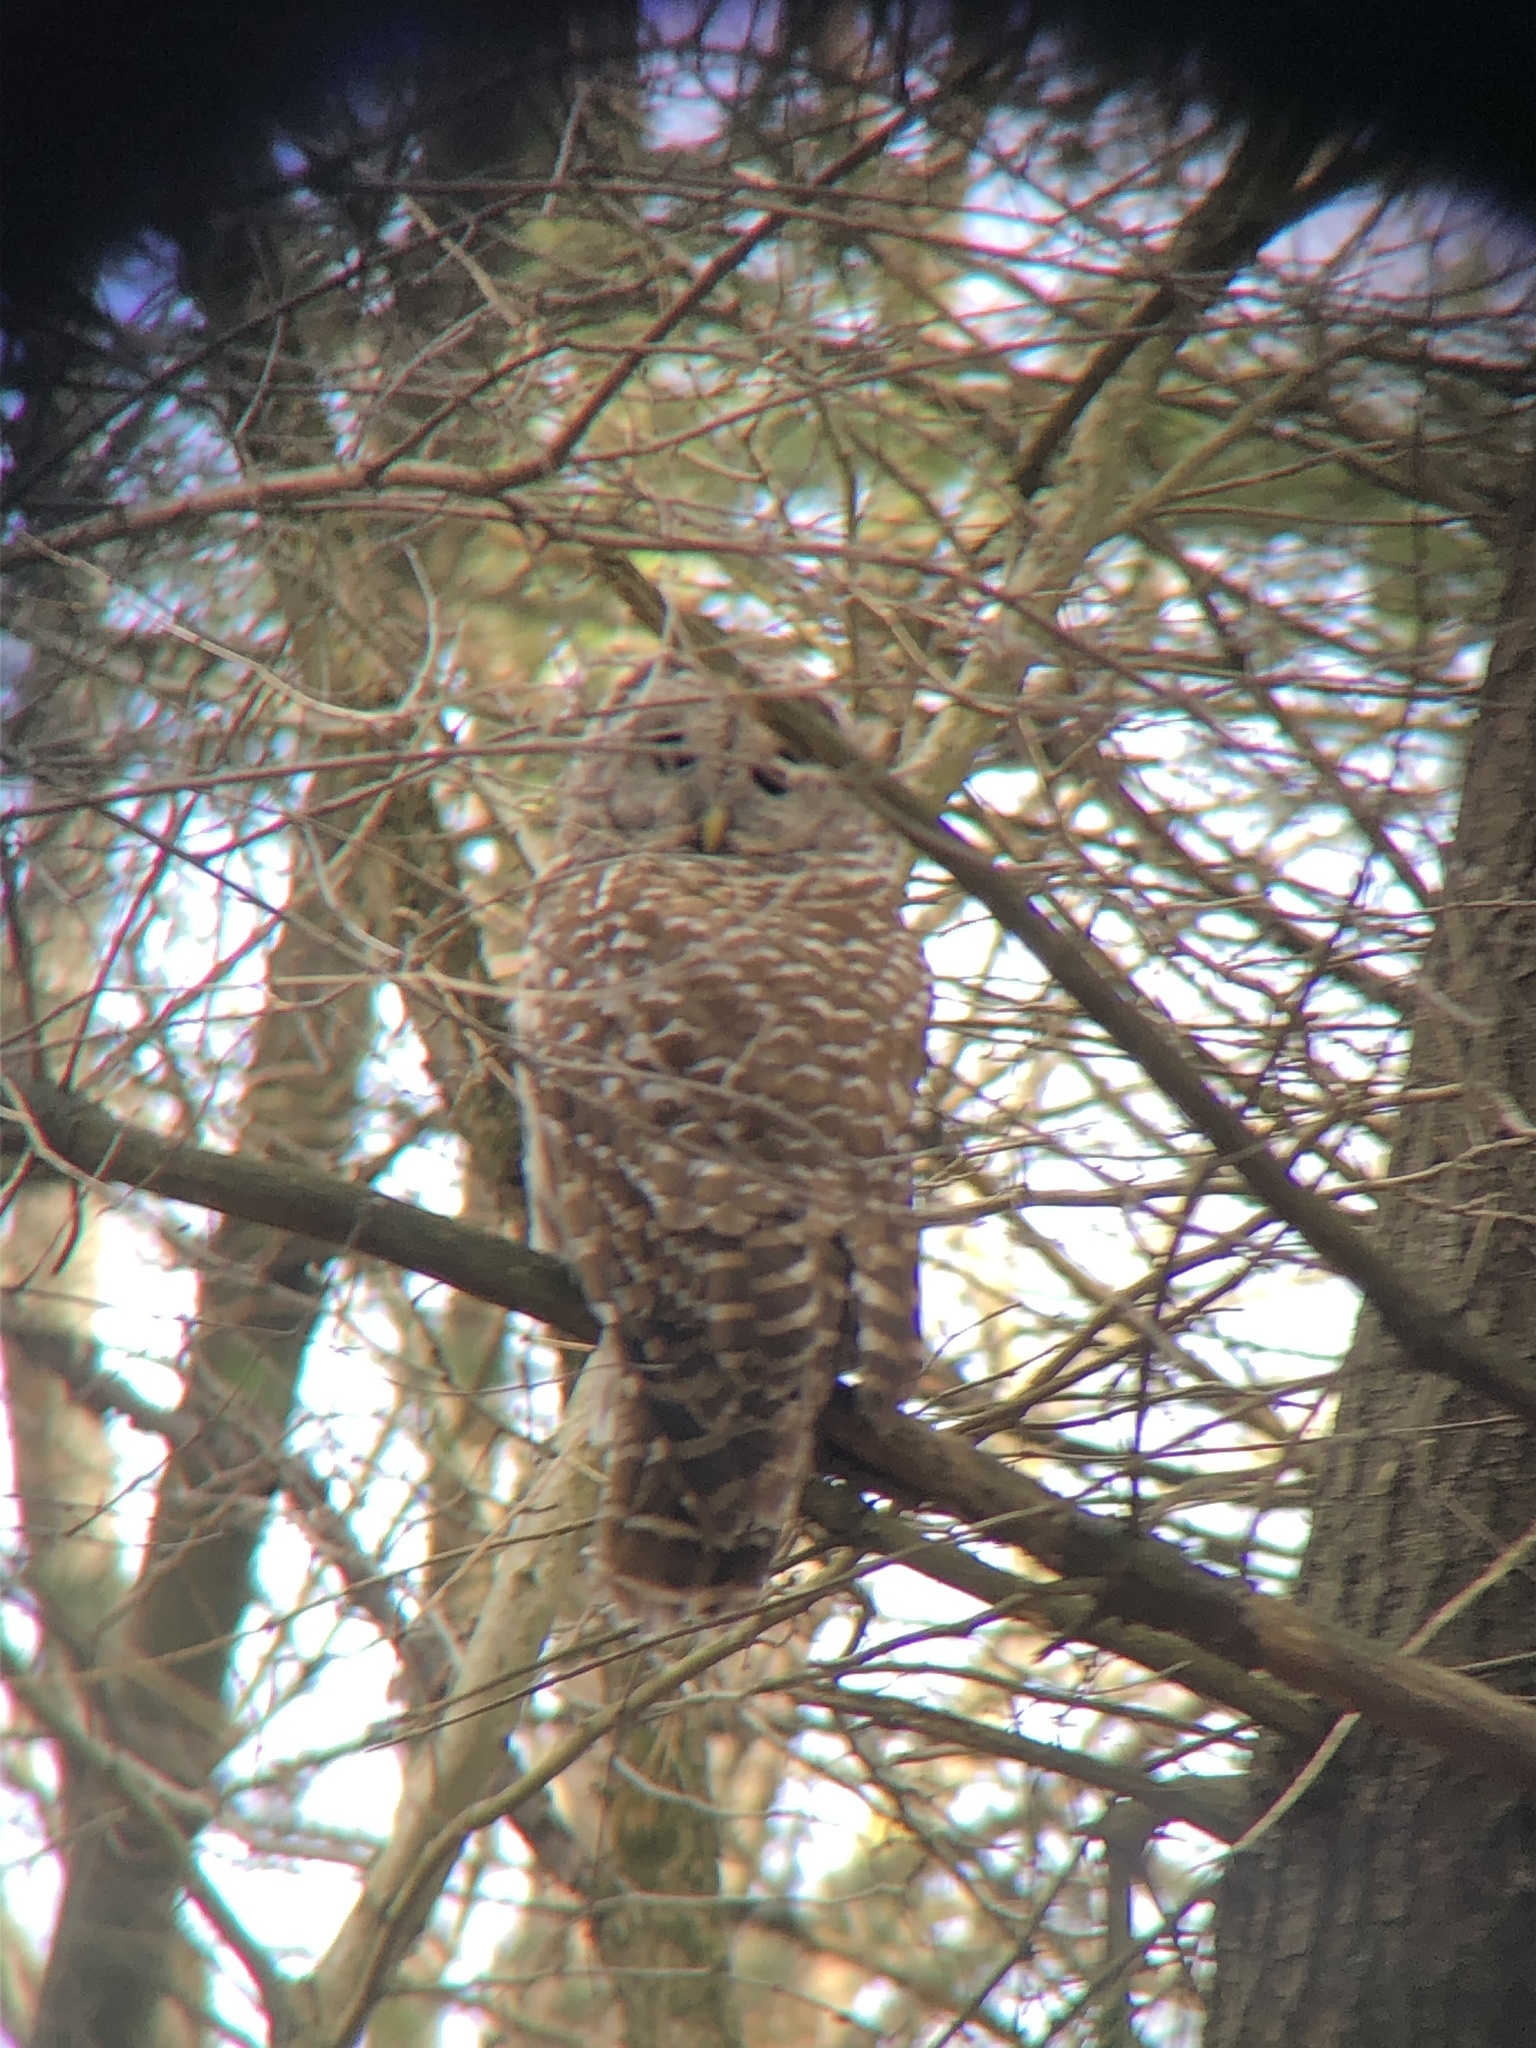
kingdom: Animalia
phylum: Chordata
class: Aves
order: Strigiformes
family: Strigidae
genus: Strix
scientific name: Strix varia
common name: Barred owl
